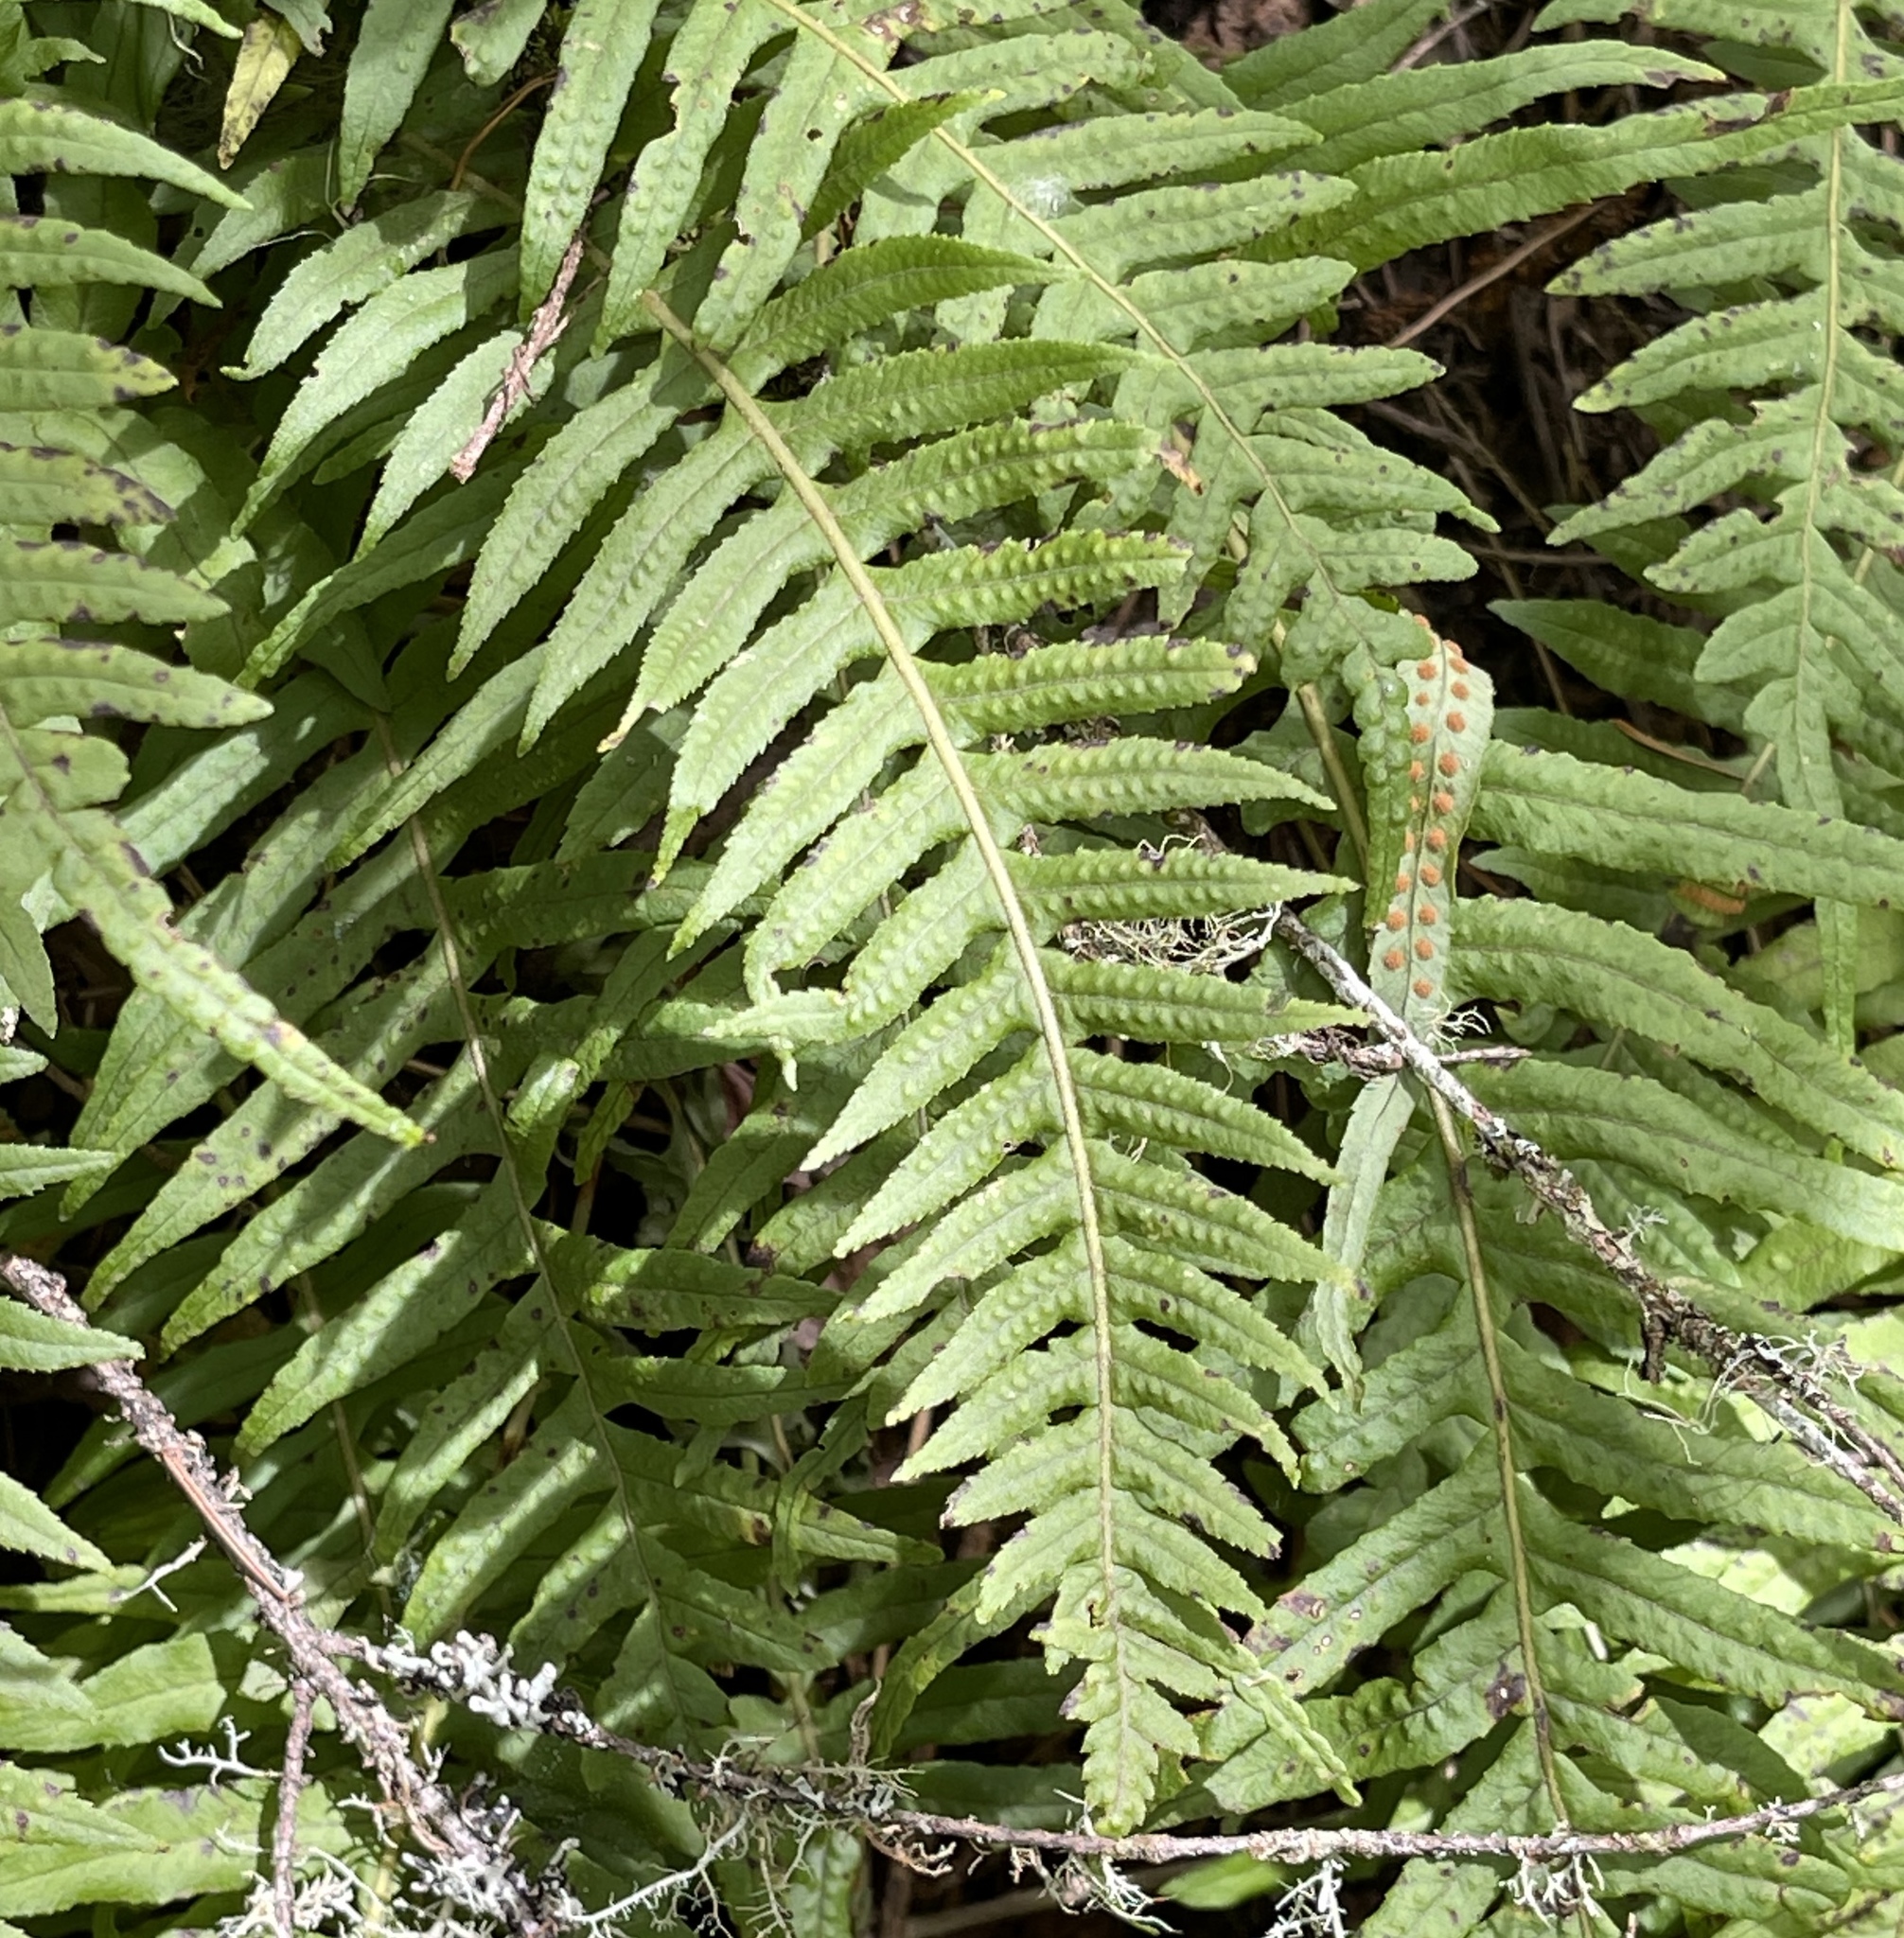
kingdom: Plantae
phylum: Tracheophyta
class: Polypodiopsida
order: Polypodiales
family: Polypodiaceae
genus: Polypodium
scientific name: Polypodium glycyrrhiza
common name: Licorice fern
